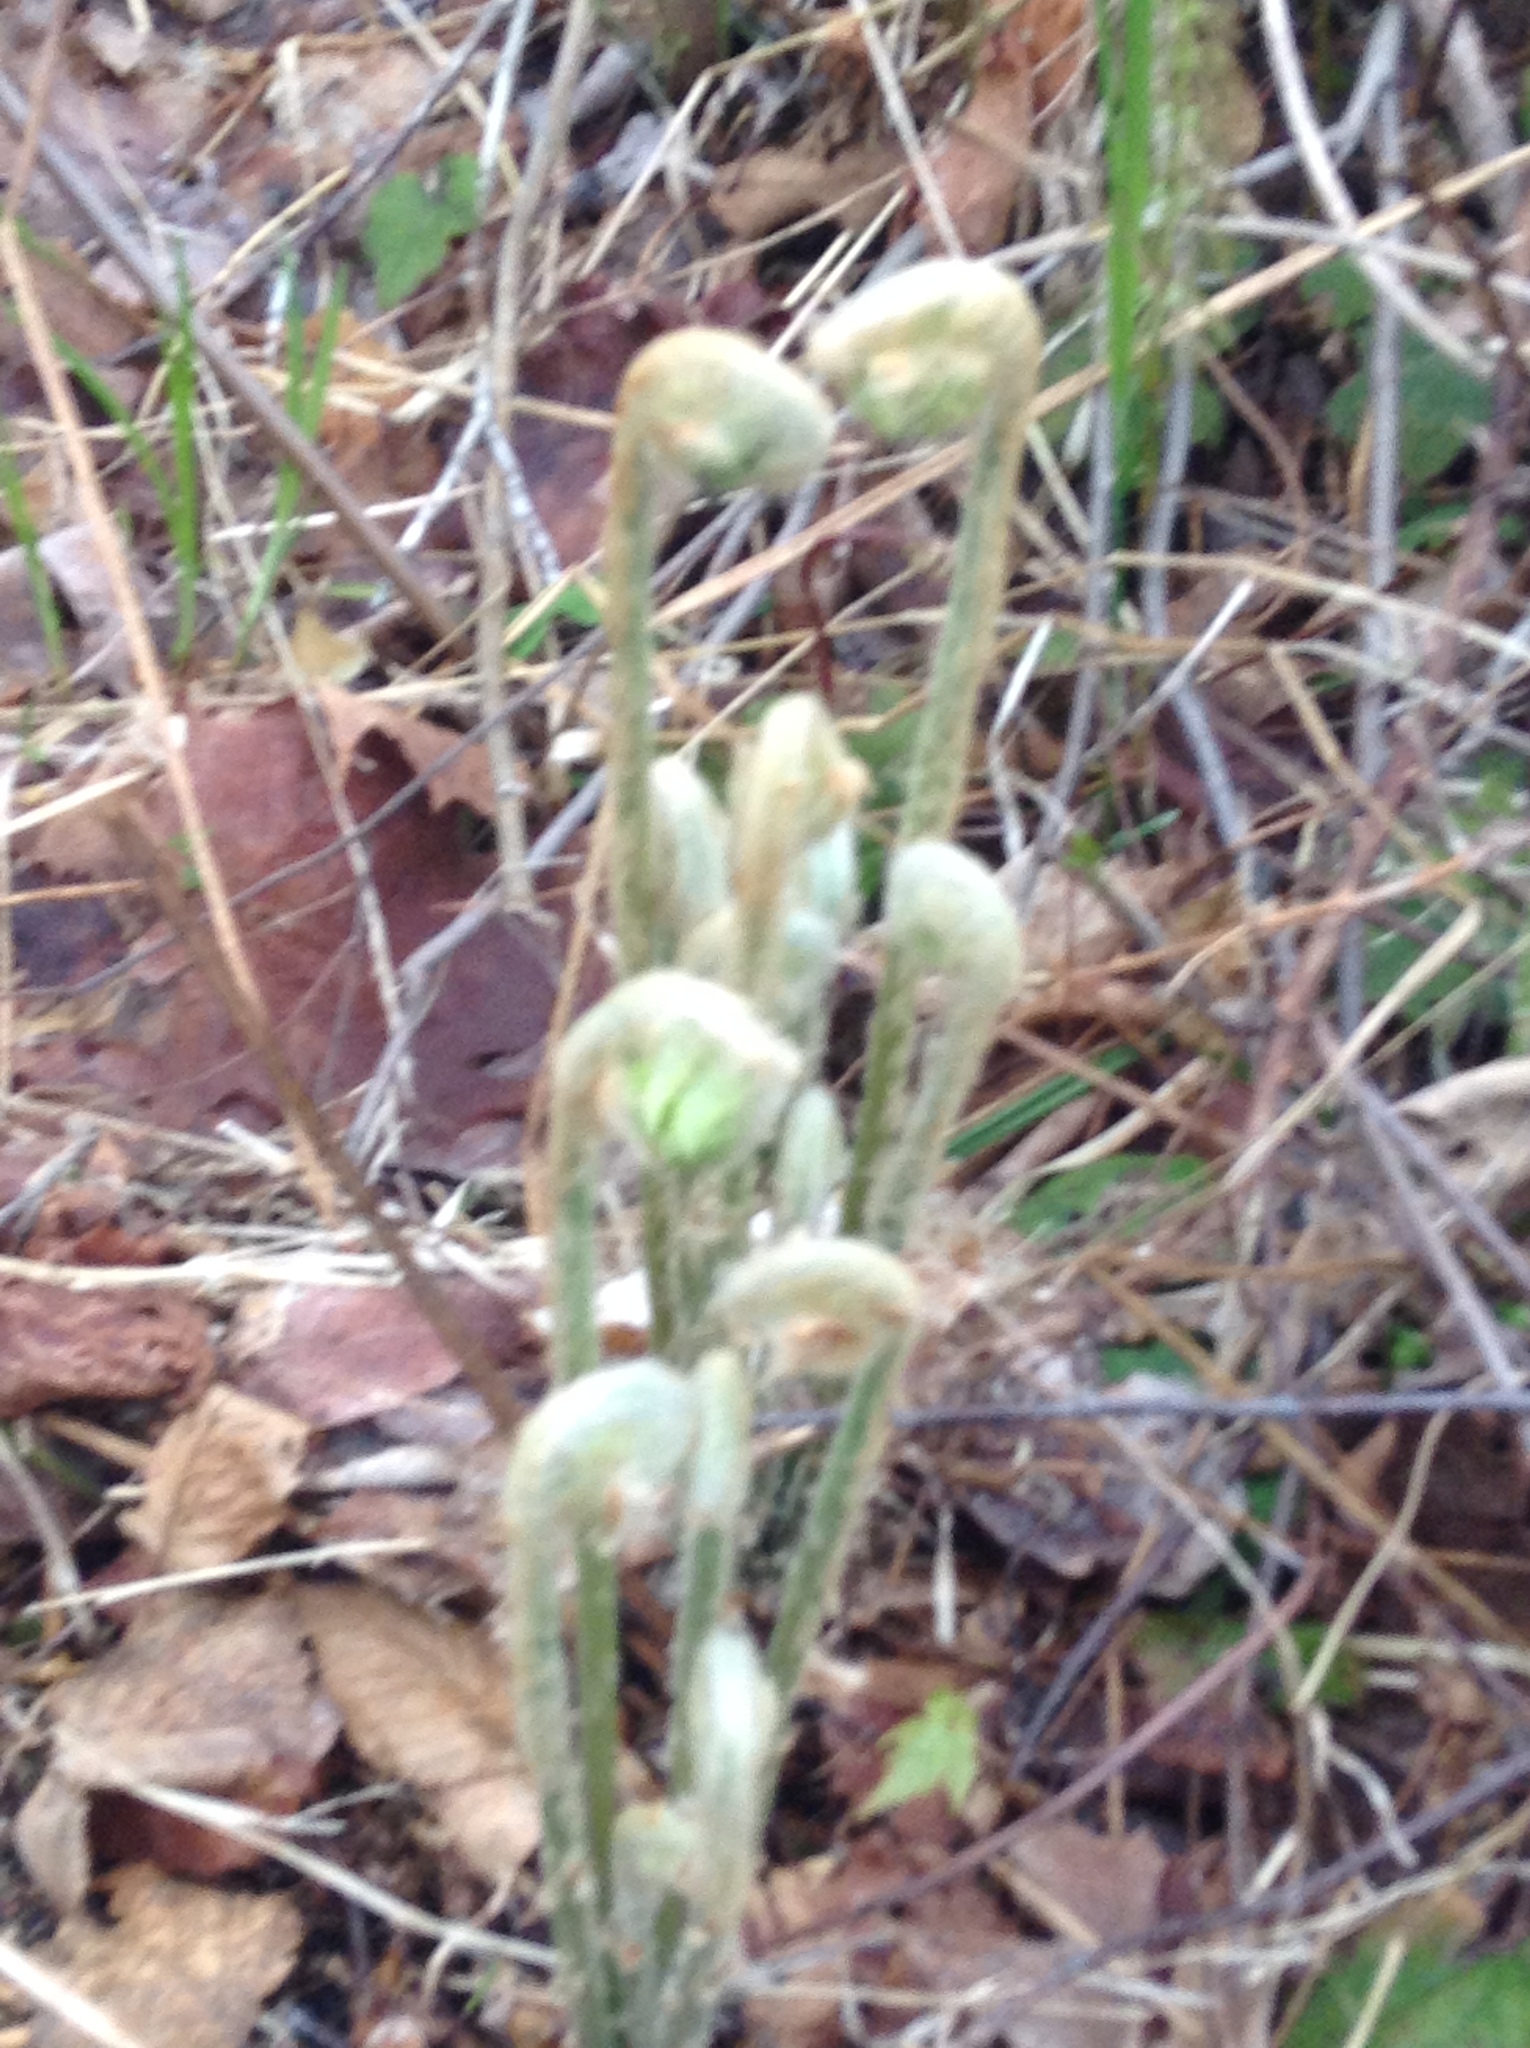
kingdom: Plantae
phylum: Tracheophyta
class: Polypodiopsida
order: Osmundales
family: Osmundaceae
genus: Osmundastrum
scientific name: Osmundastrum cinnamomeum
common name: Cinnamon fern
